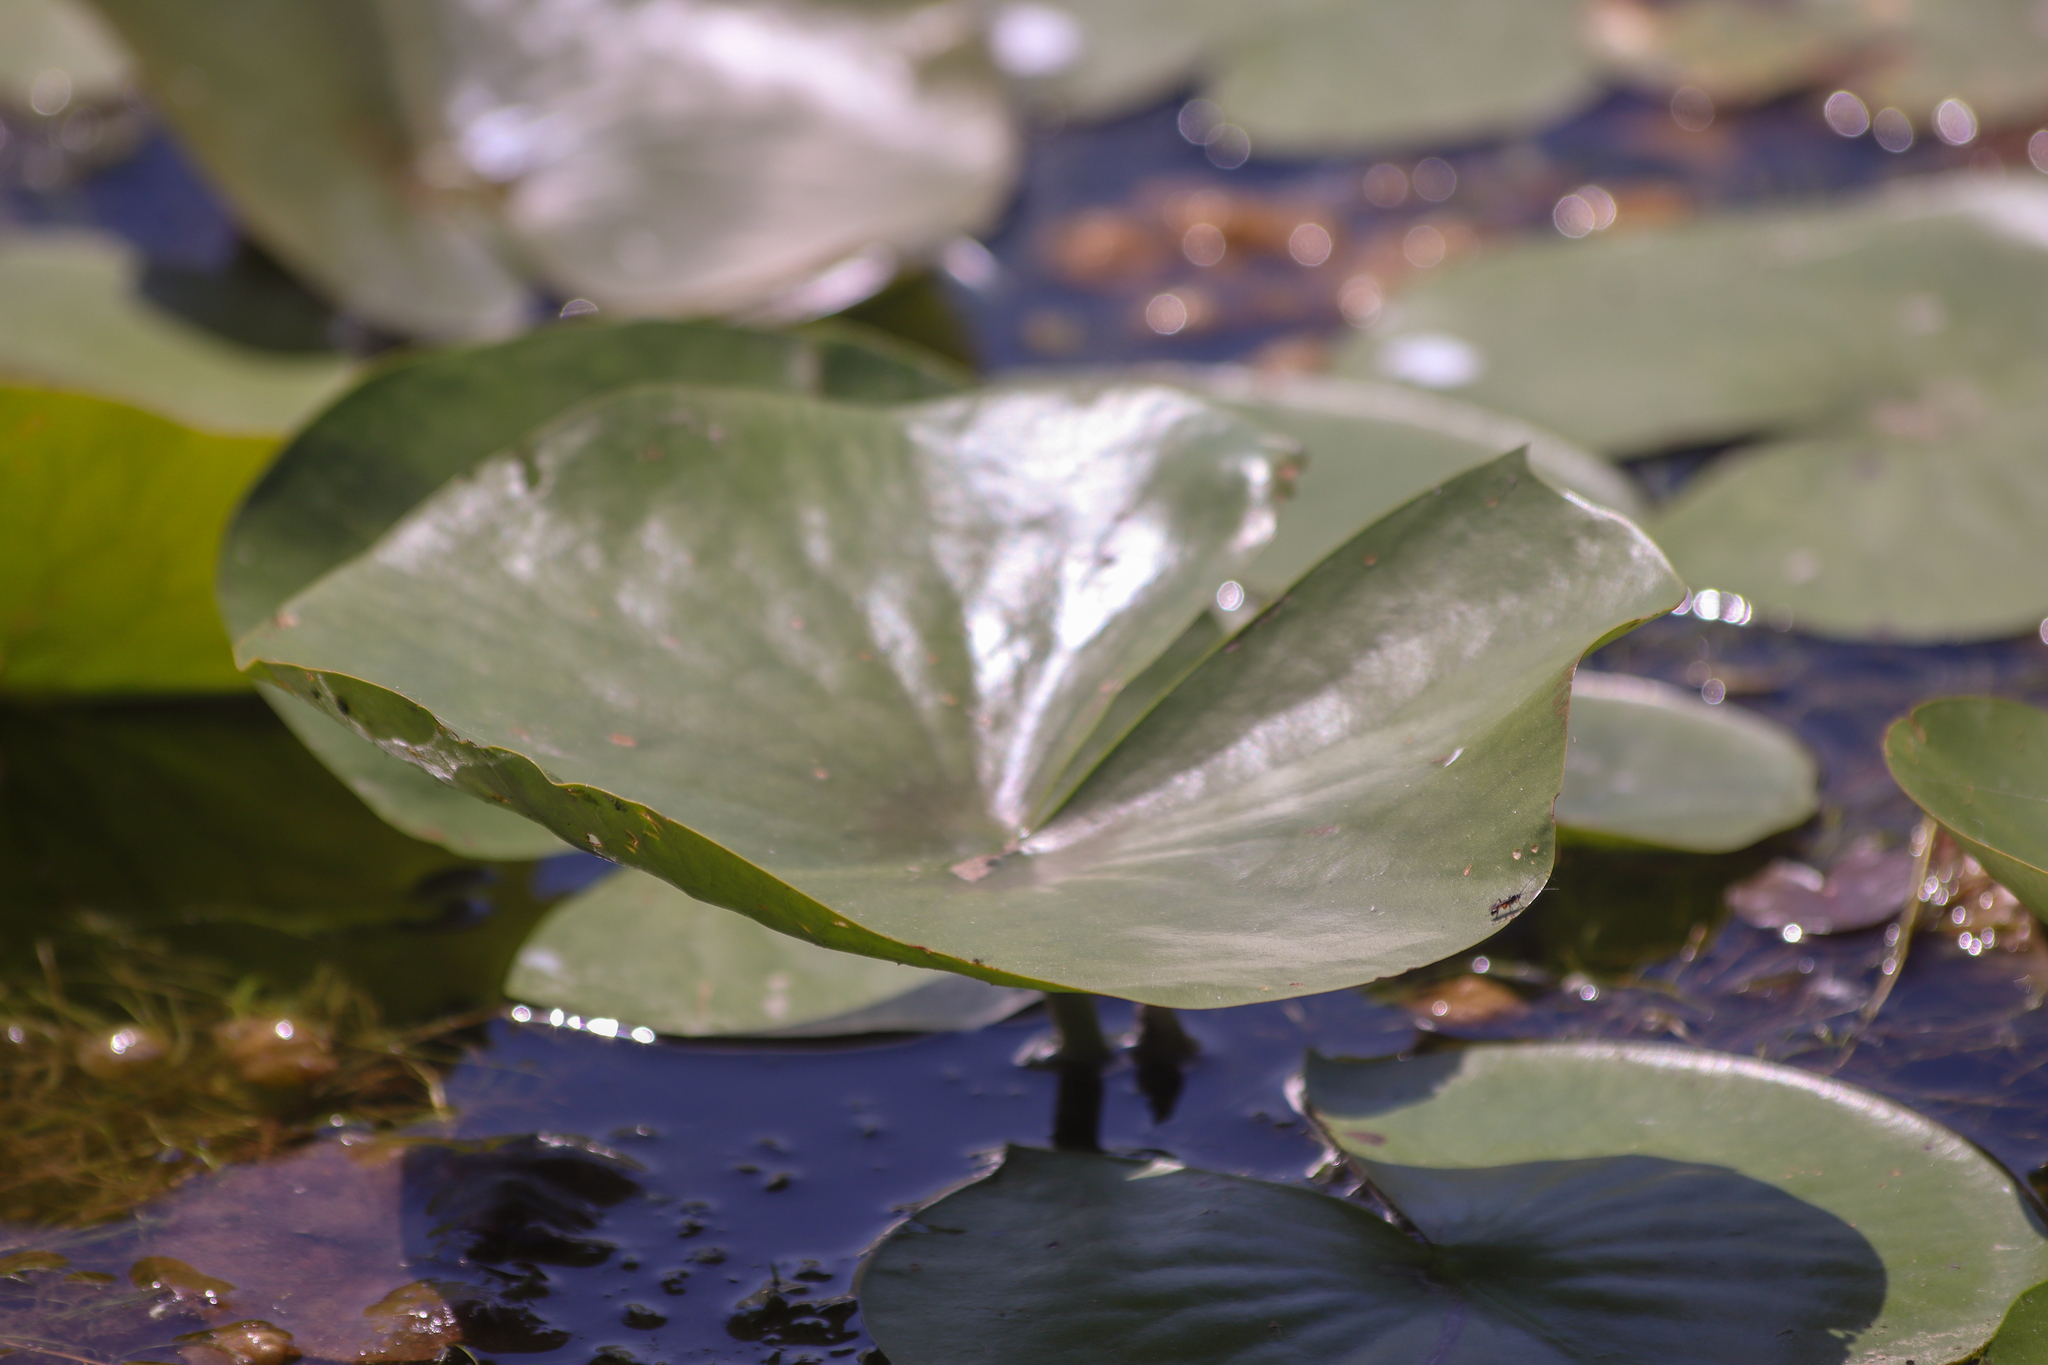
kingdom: Plantae
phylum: Tracheophyta
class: Magnoliopsida
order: Nymphaeales
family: Nymphaeaceae
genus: Nymphaea
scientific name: Nymphaea odorata
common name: Fragrant water-lily
